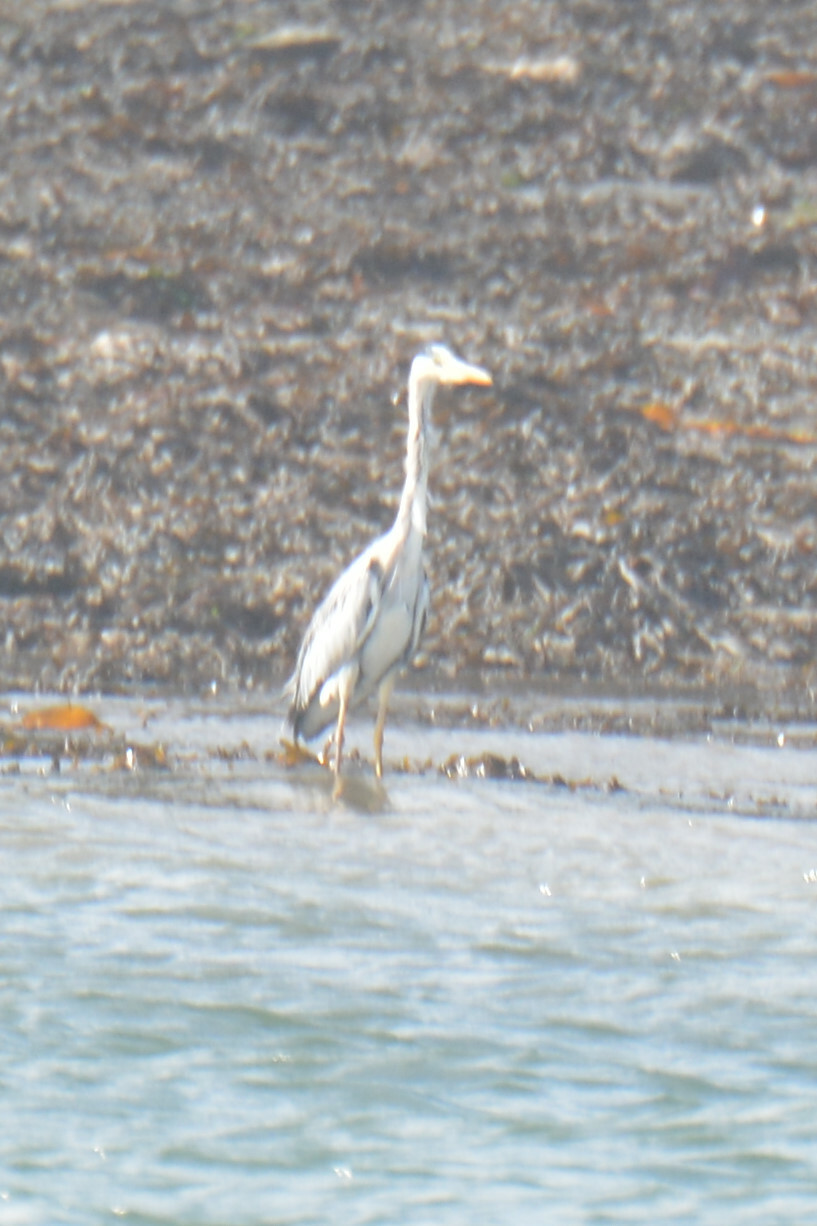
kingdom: Animalia
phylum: Chordata
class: Aves
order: Pelecaniformes
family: Ardeidae
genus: Ardea
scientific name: Ardea cinerea
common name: Grey heron
